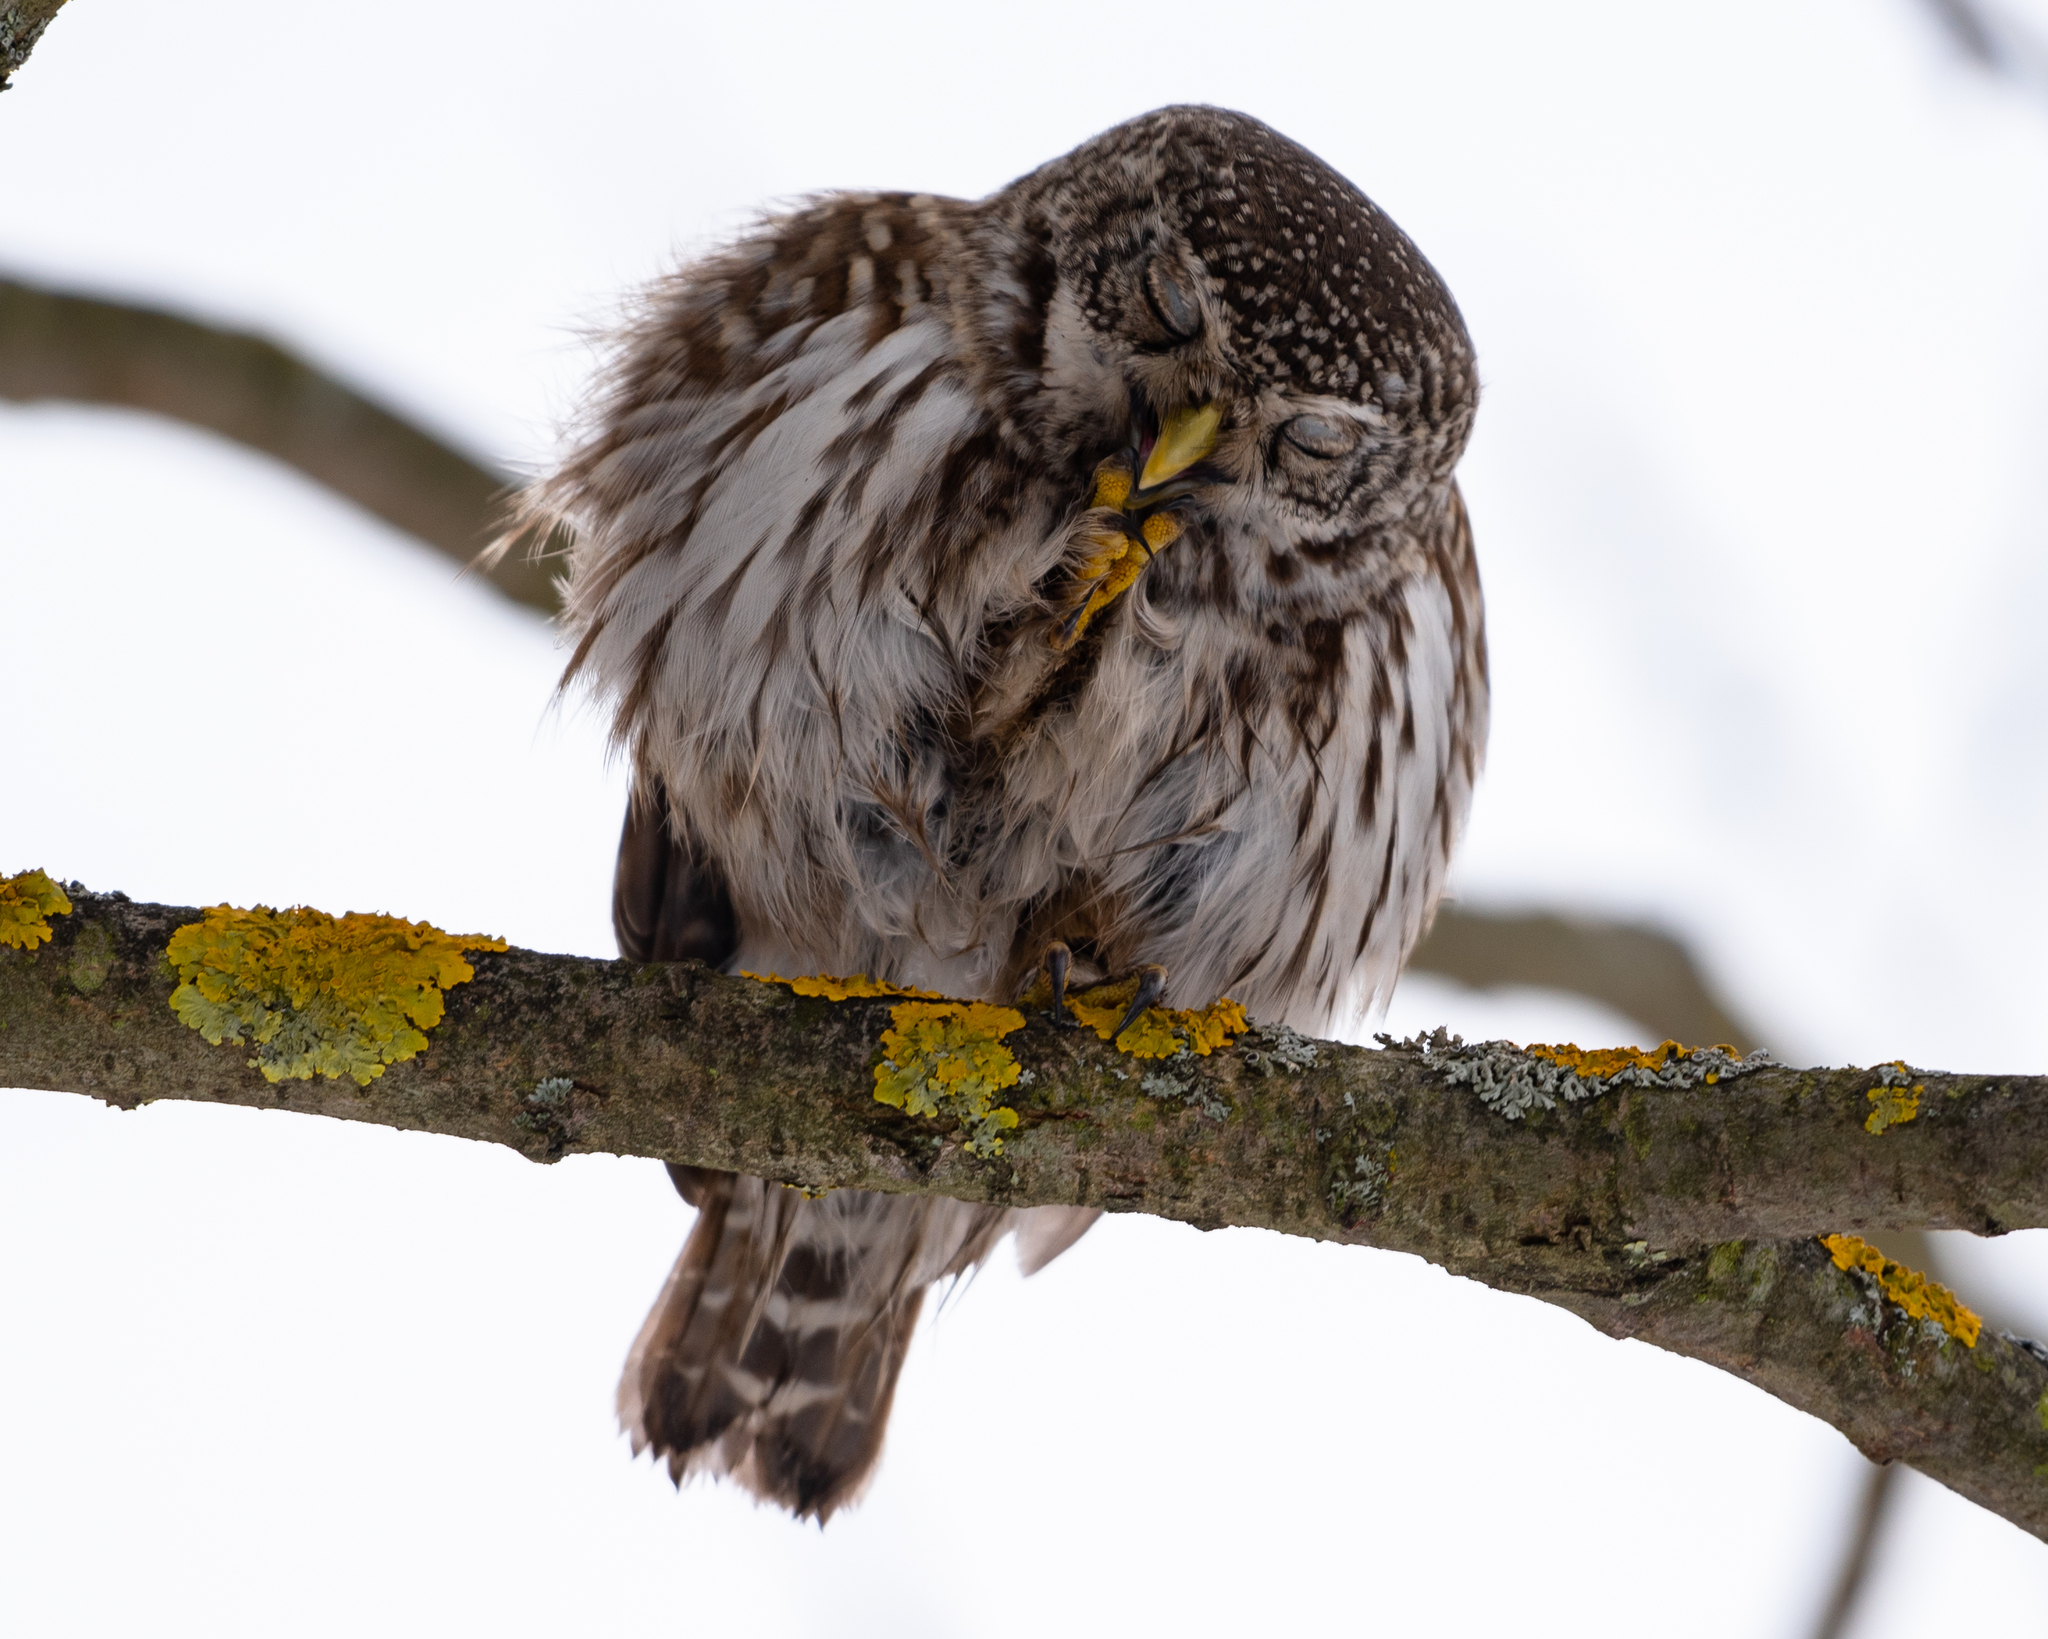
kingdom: Animalia
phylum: Chordata
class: Aves
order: Strigiformes
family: Strigidae
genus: Glaucidium
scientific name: Glaucidium passerinum
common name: Eurasian pygmy owl
